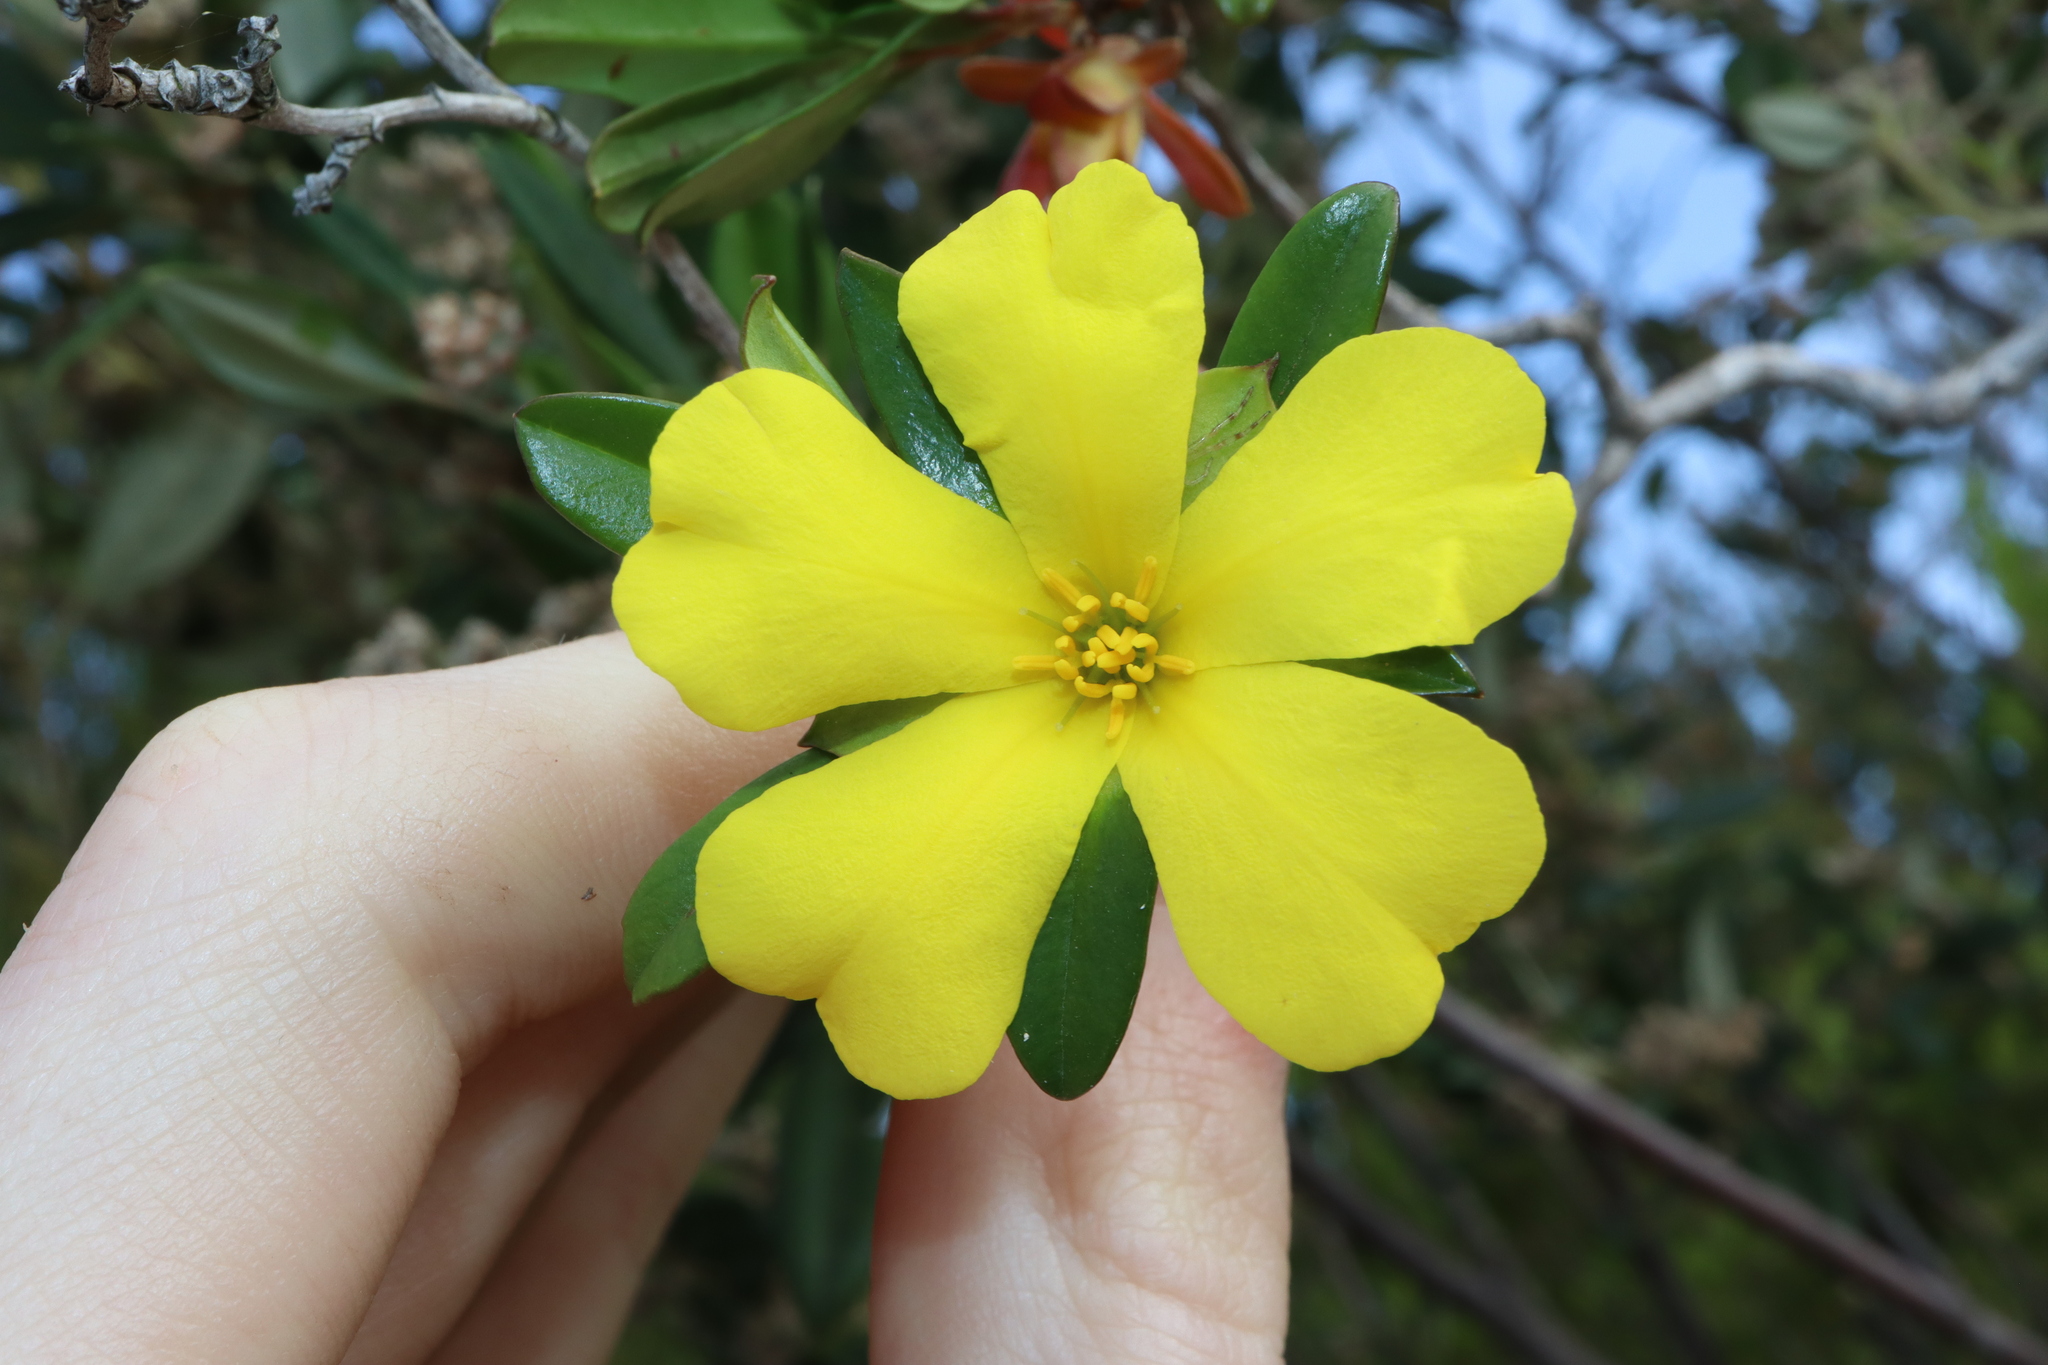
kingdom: Plantae
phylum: Tracheophyta
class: Magnoliopsida
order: Dilleniales
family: Dilleniaceae
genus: Hibbertia
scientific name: Hibbertia cuneiformis
